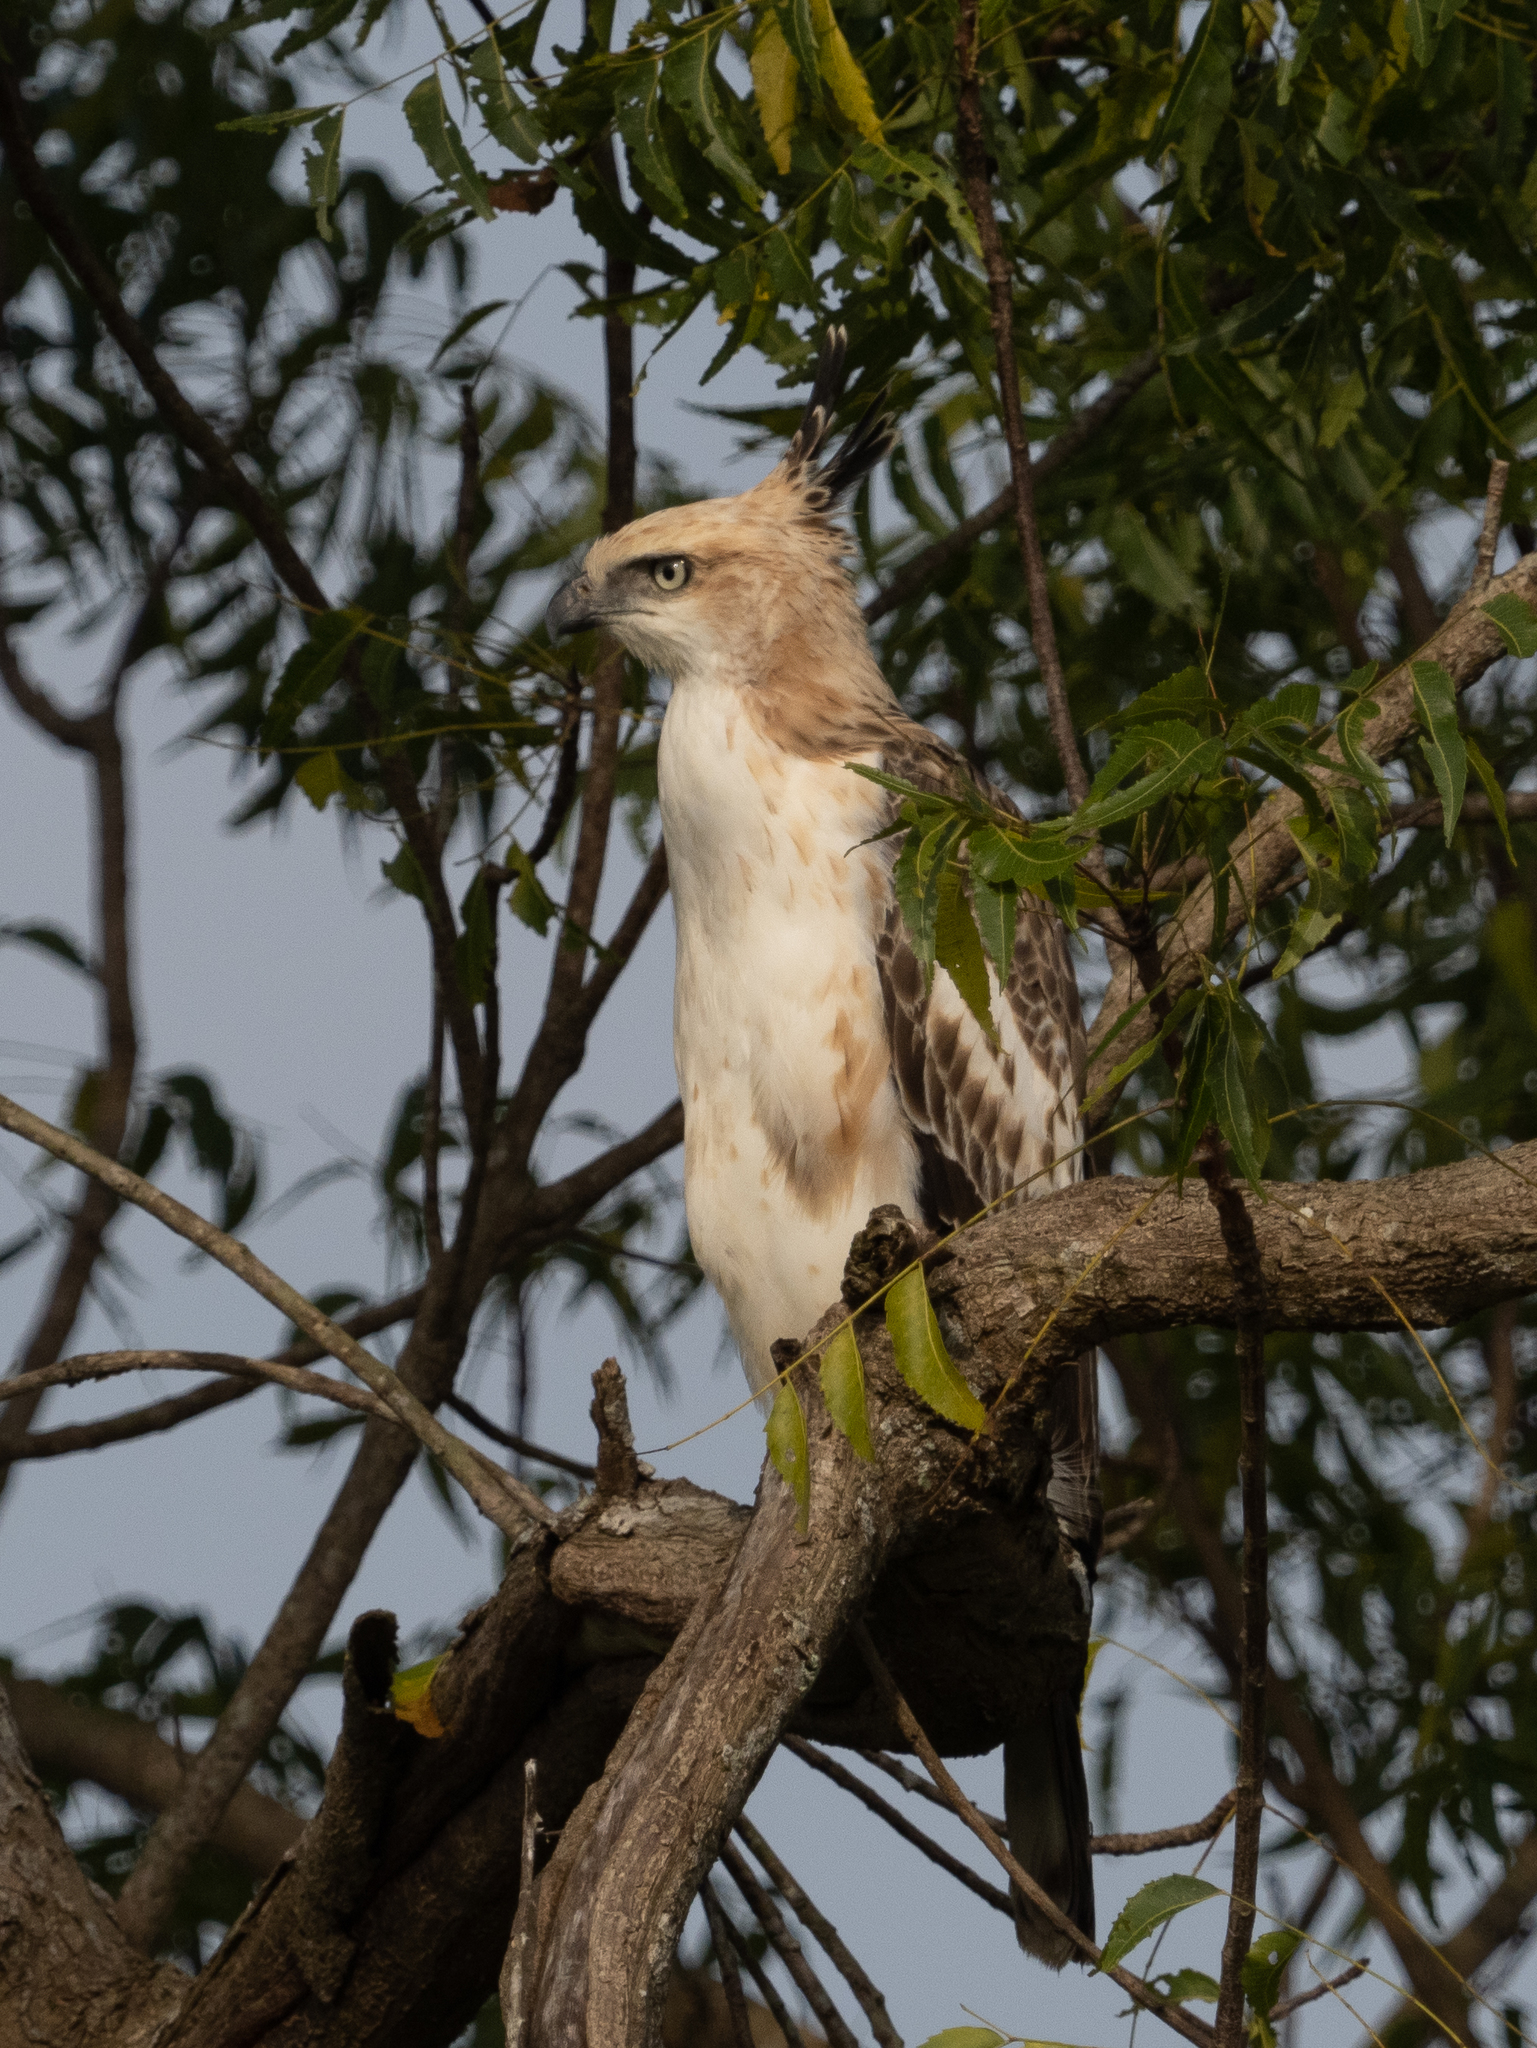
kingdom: Animalia
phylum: Chordata
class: Aves
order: Accipitriformes
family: Accipitridae
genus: Nisaetus
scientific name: Nisaetus cirrhatus
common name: Changeable hawk-eagle
